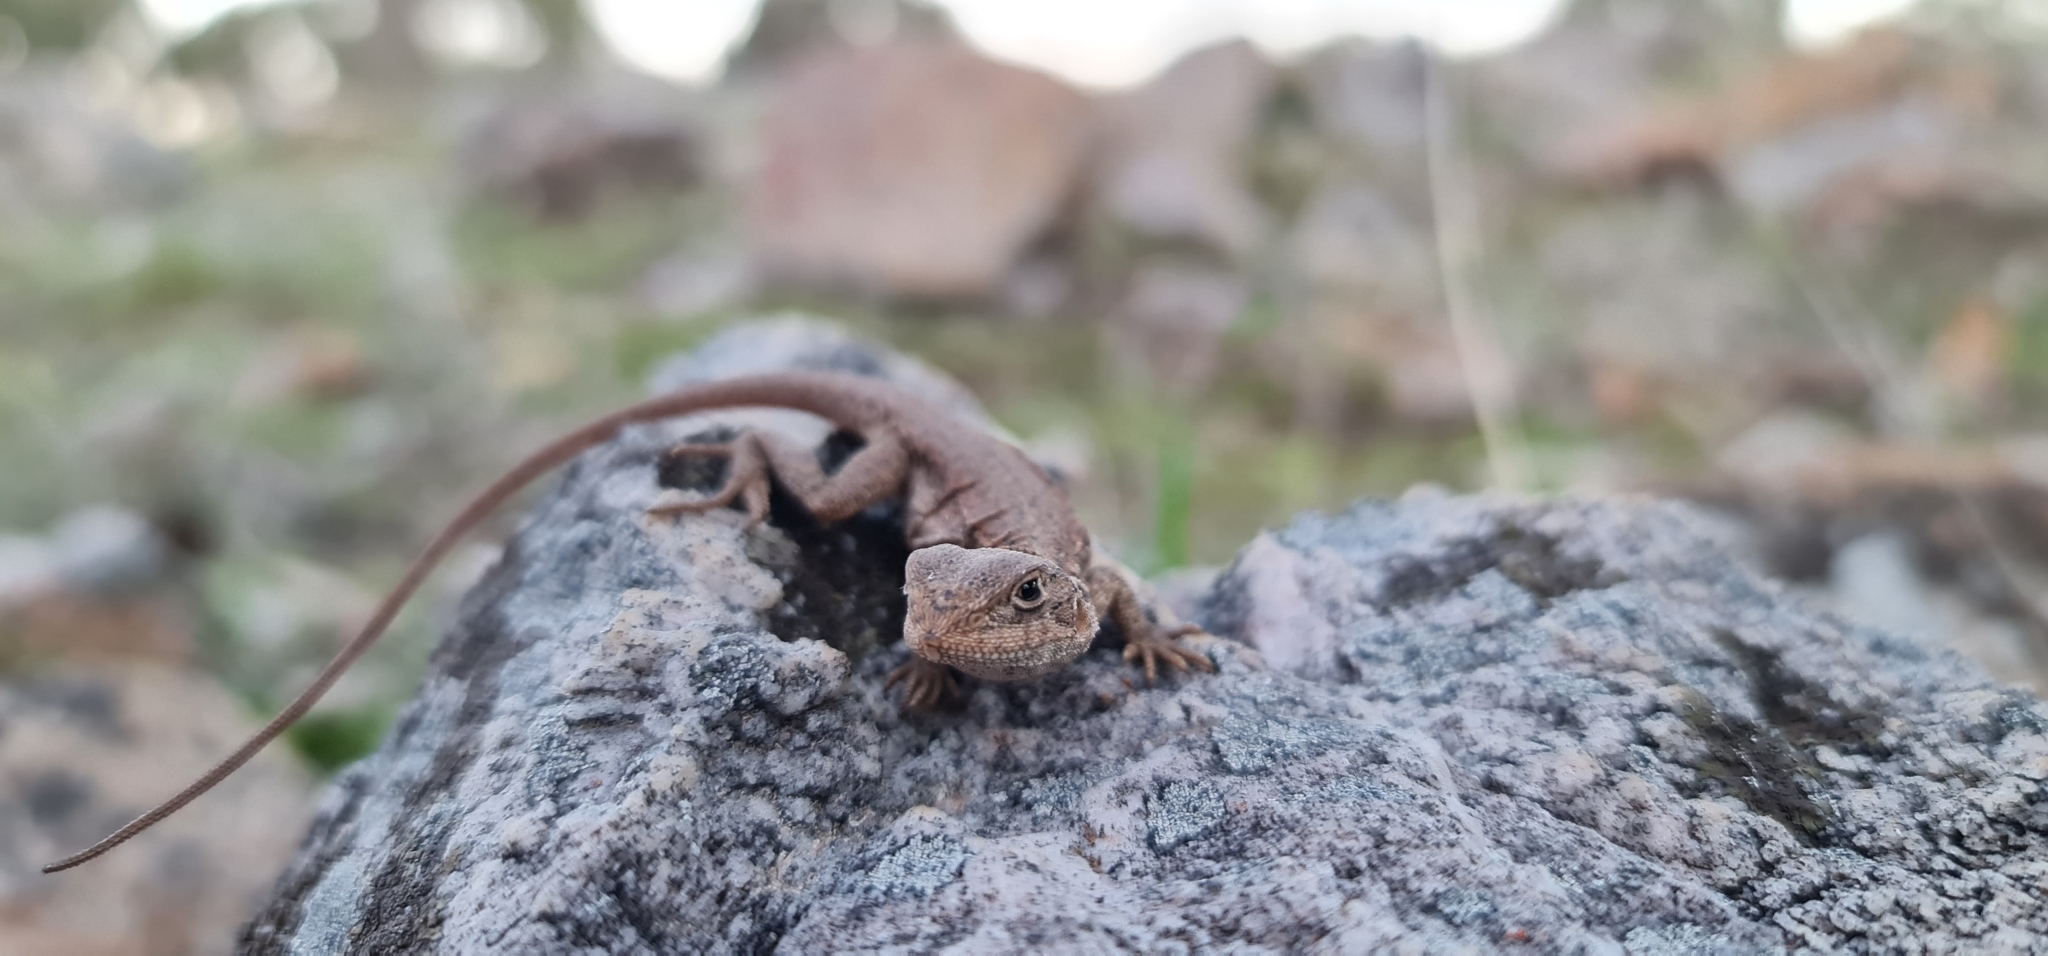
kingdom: Animalia
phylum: Chordata
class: Squamata
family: Agamidae
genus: Ctenophorus
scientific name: Ctenophorus decresii
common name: Tawny dragon
